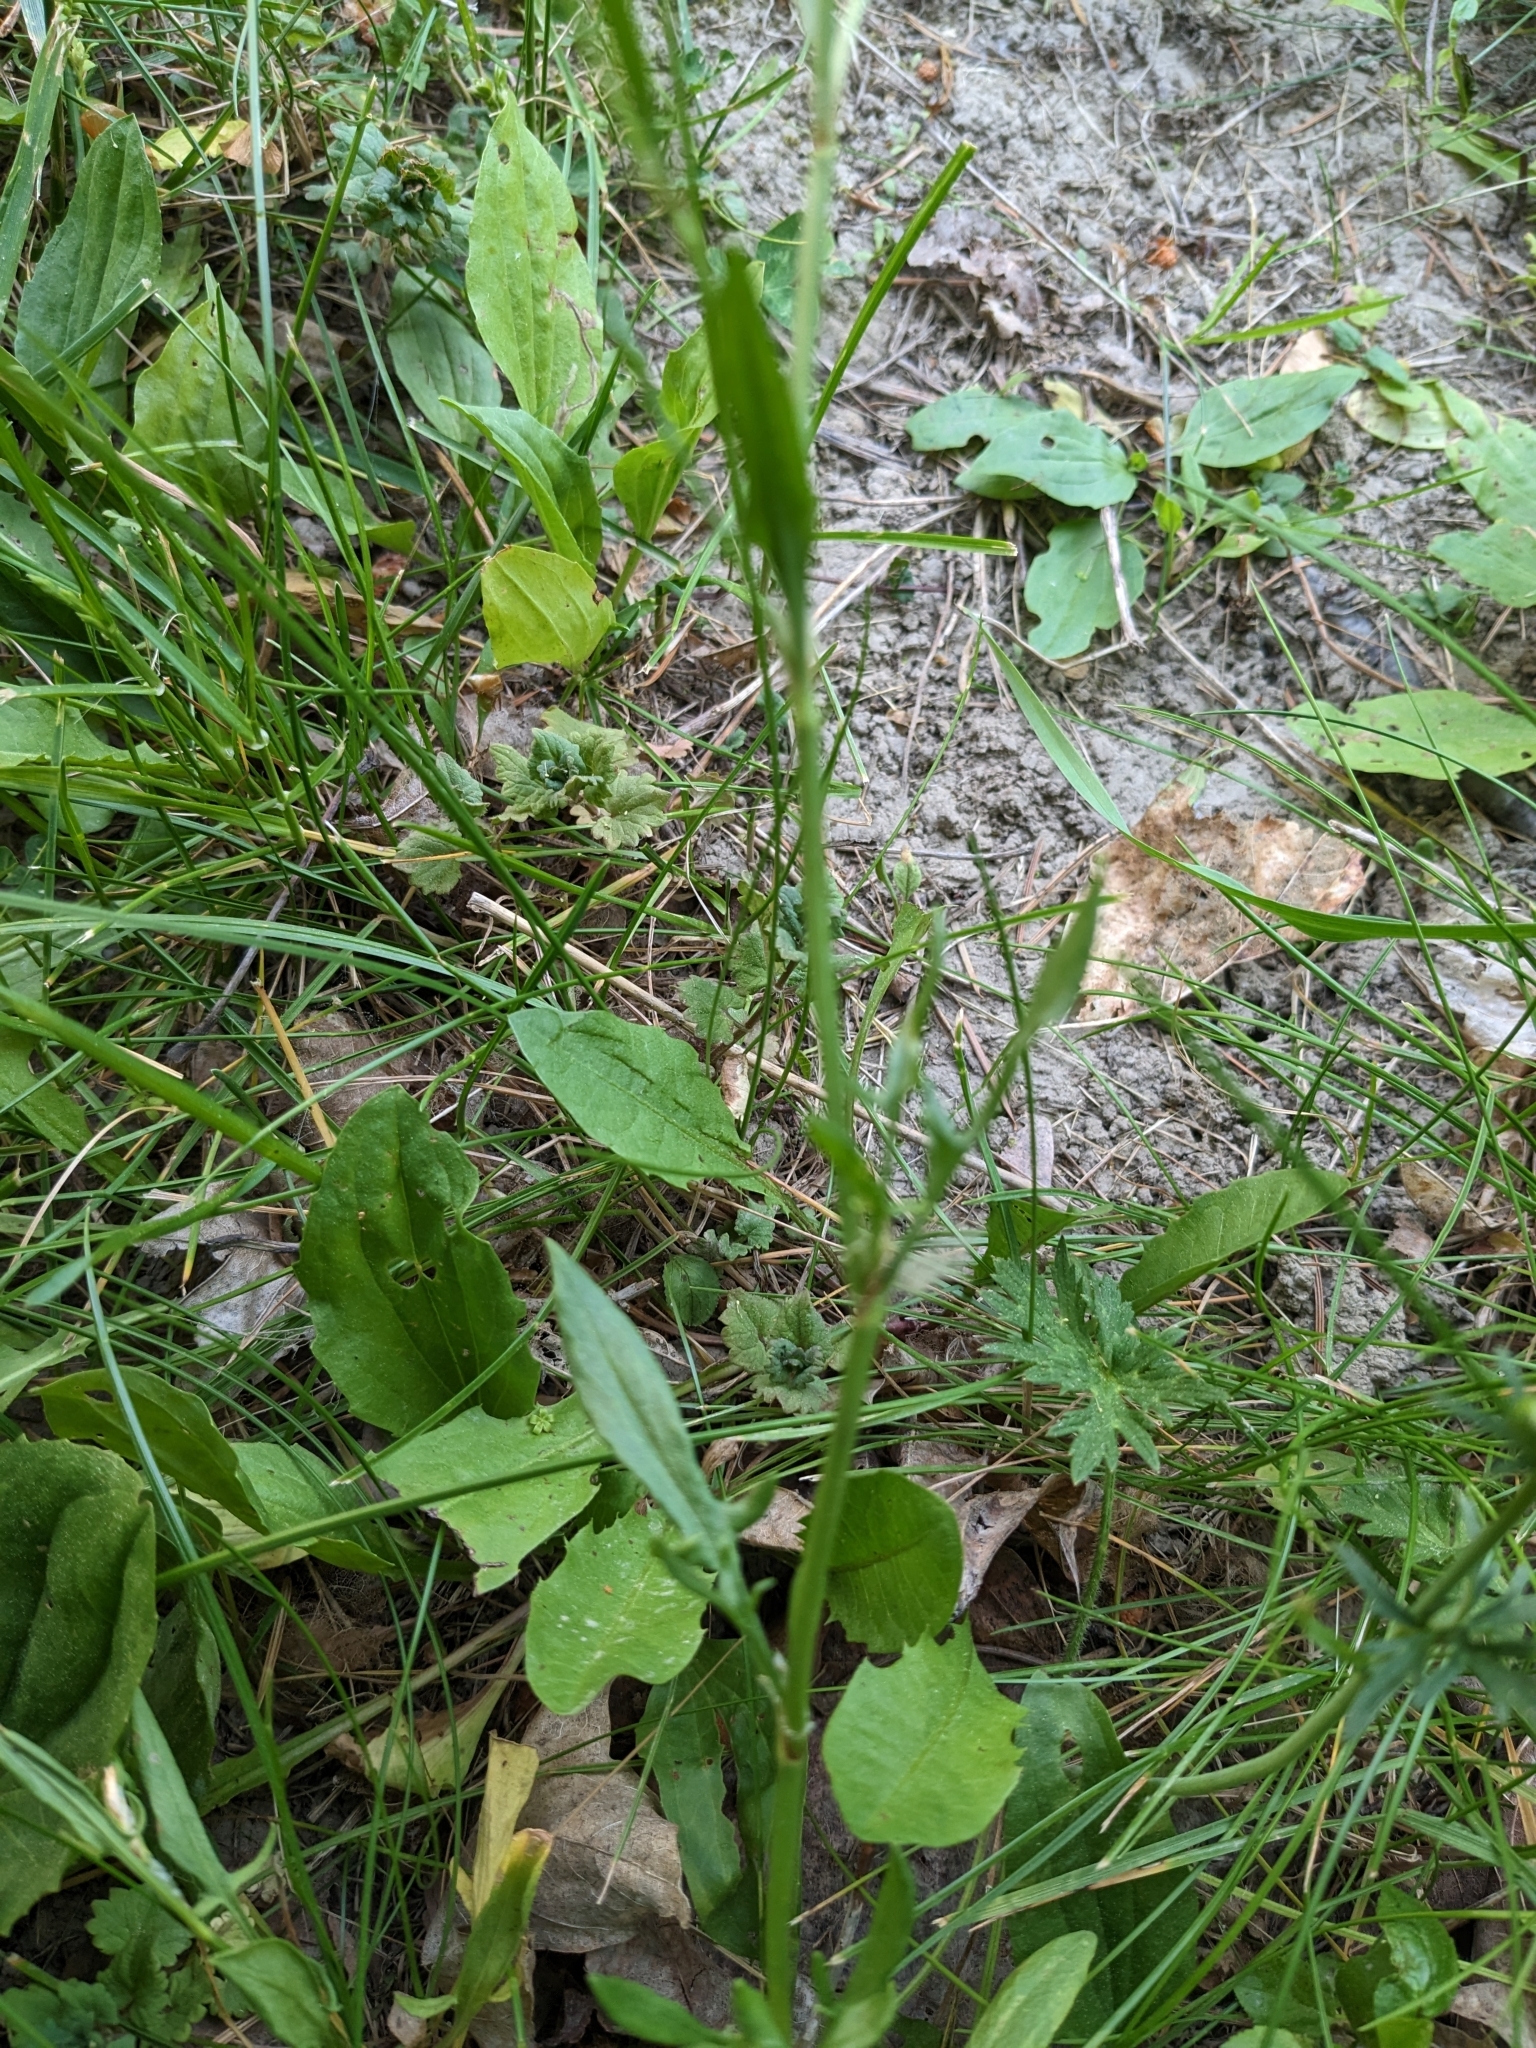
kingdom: Plantae
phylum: Tracheophyta
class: Magnoliopsida
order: Caryophyllales
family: Polygonaceae
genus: Rumex
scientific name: Rumex acetosella
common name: Common sheep sorrel
